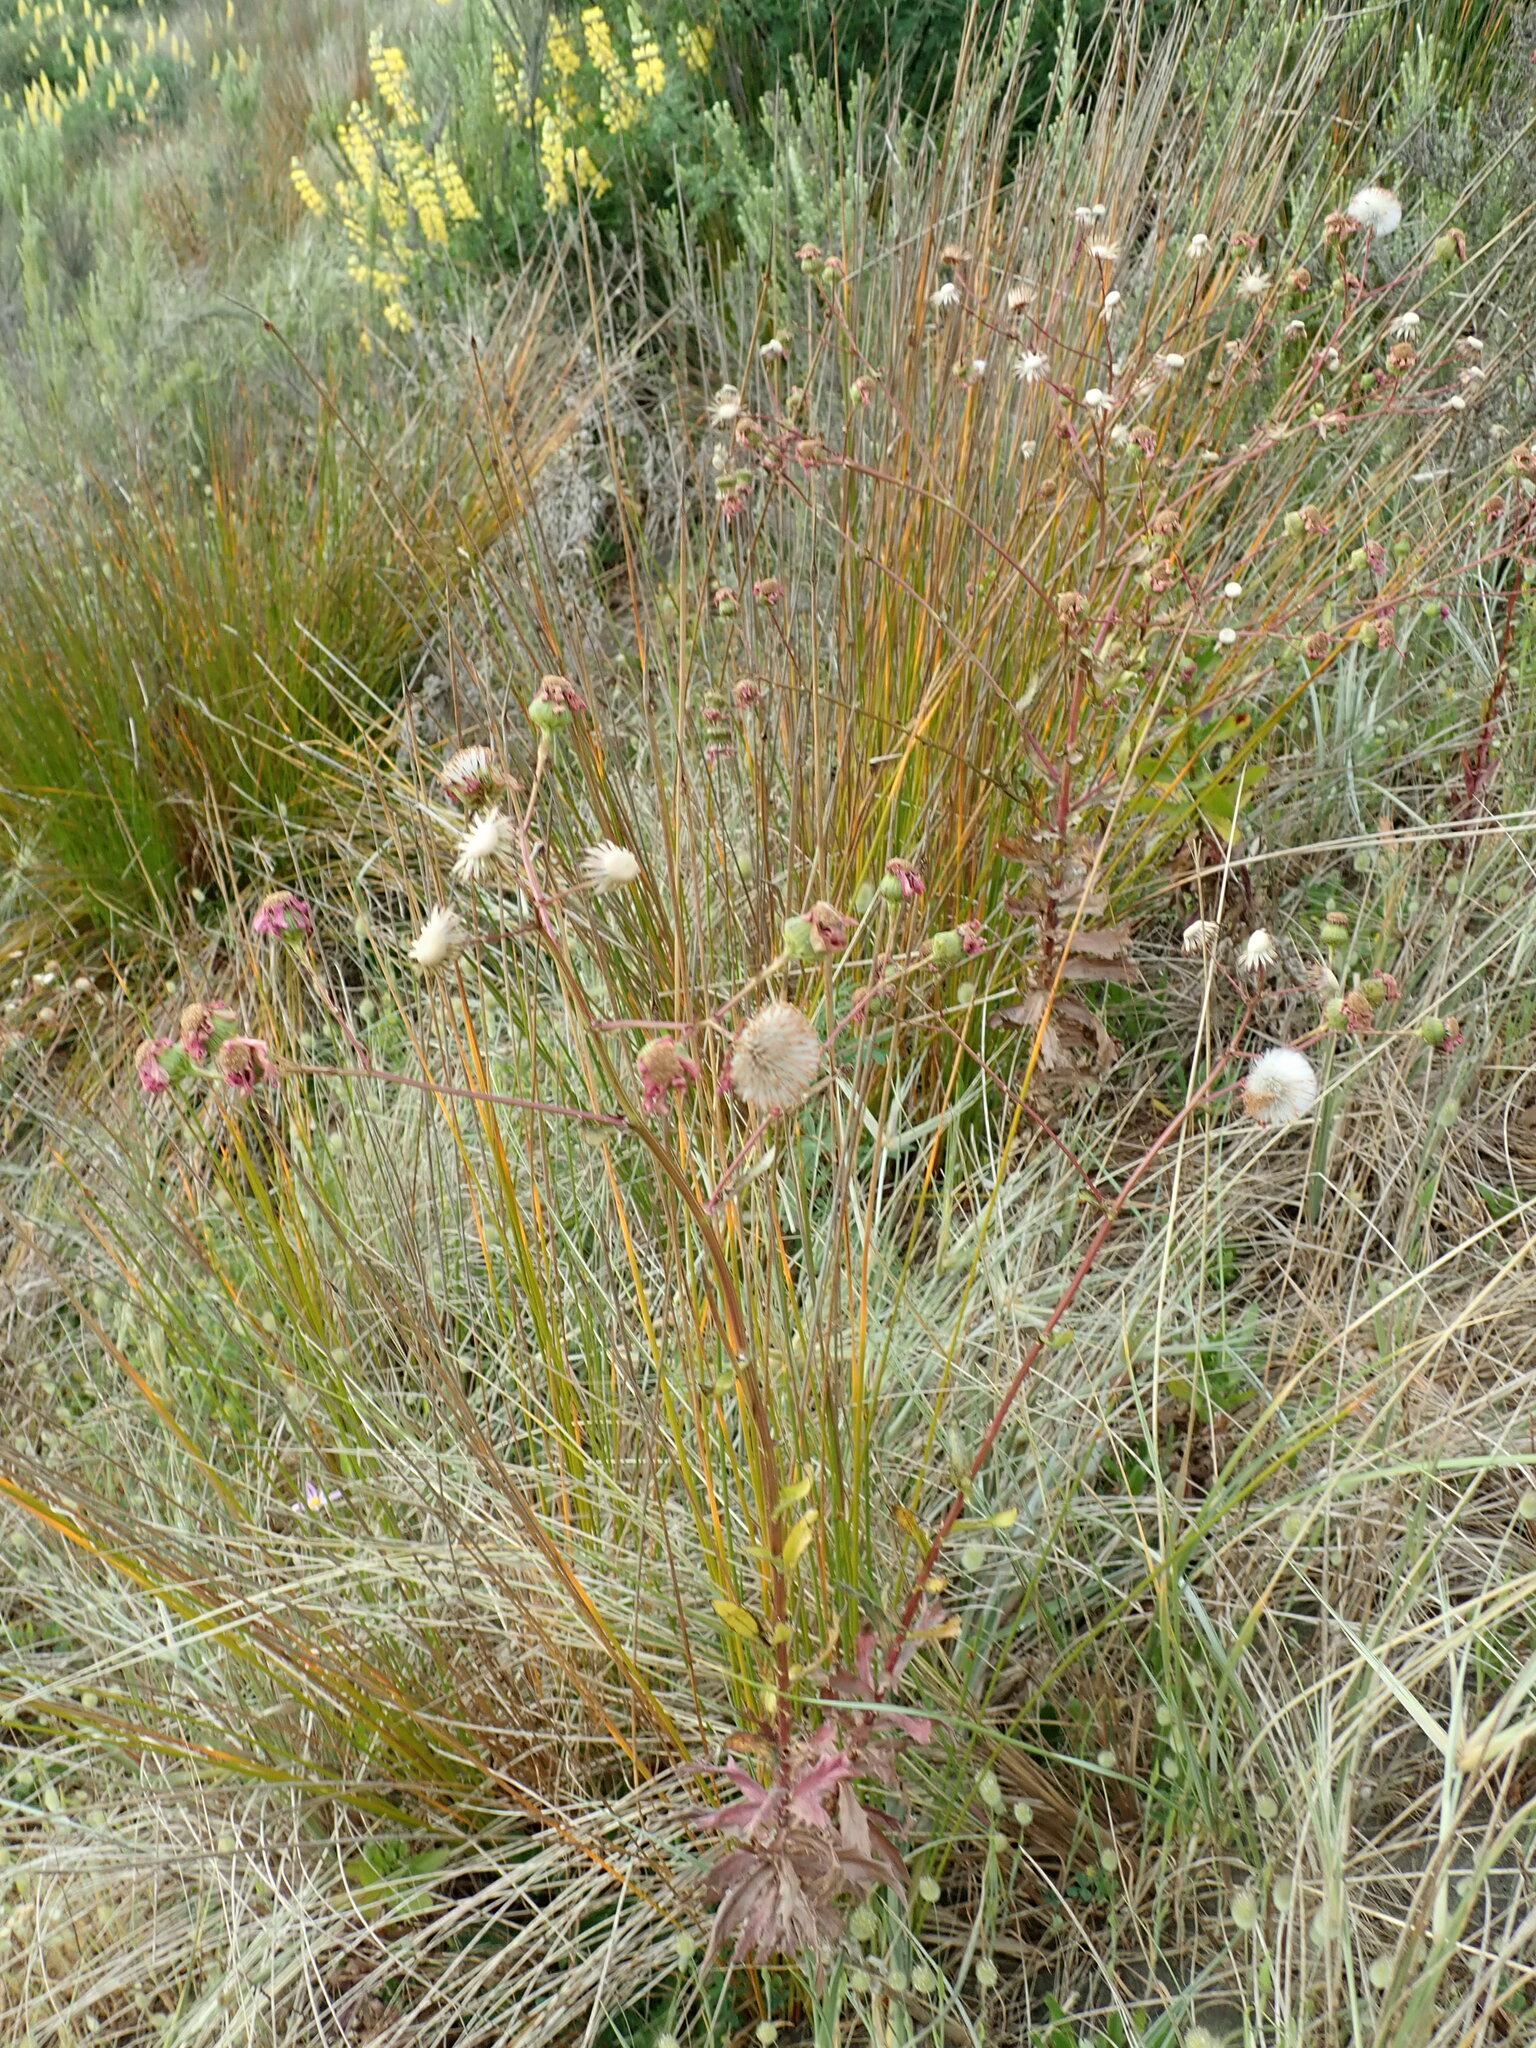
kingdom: Plantae
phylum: Tracheophyta
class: Magnoliopsida
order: Asterales
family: Asteraceae
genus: Senecio
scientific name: Senecio glastifolius
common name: Woad-leaved ragwort
